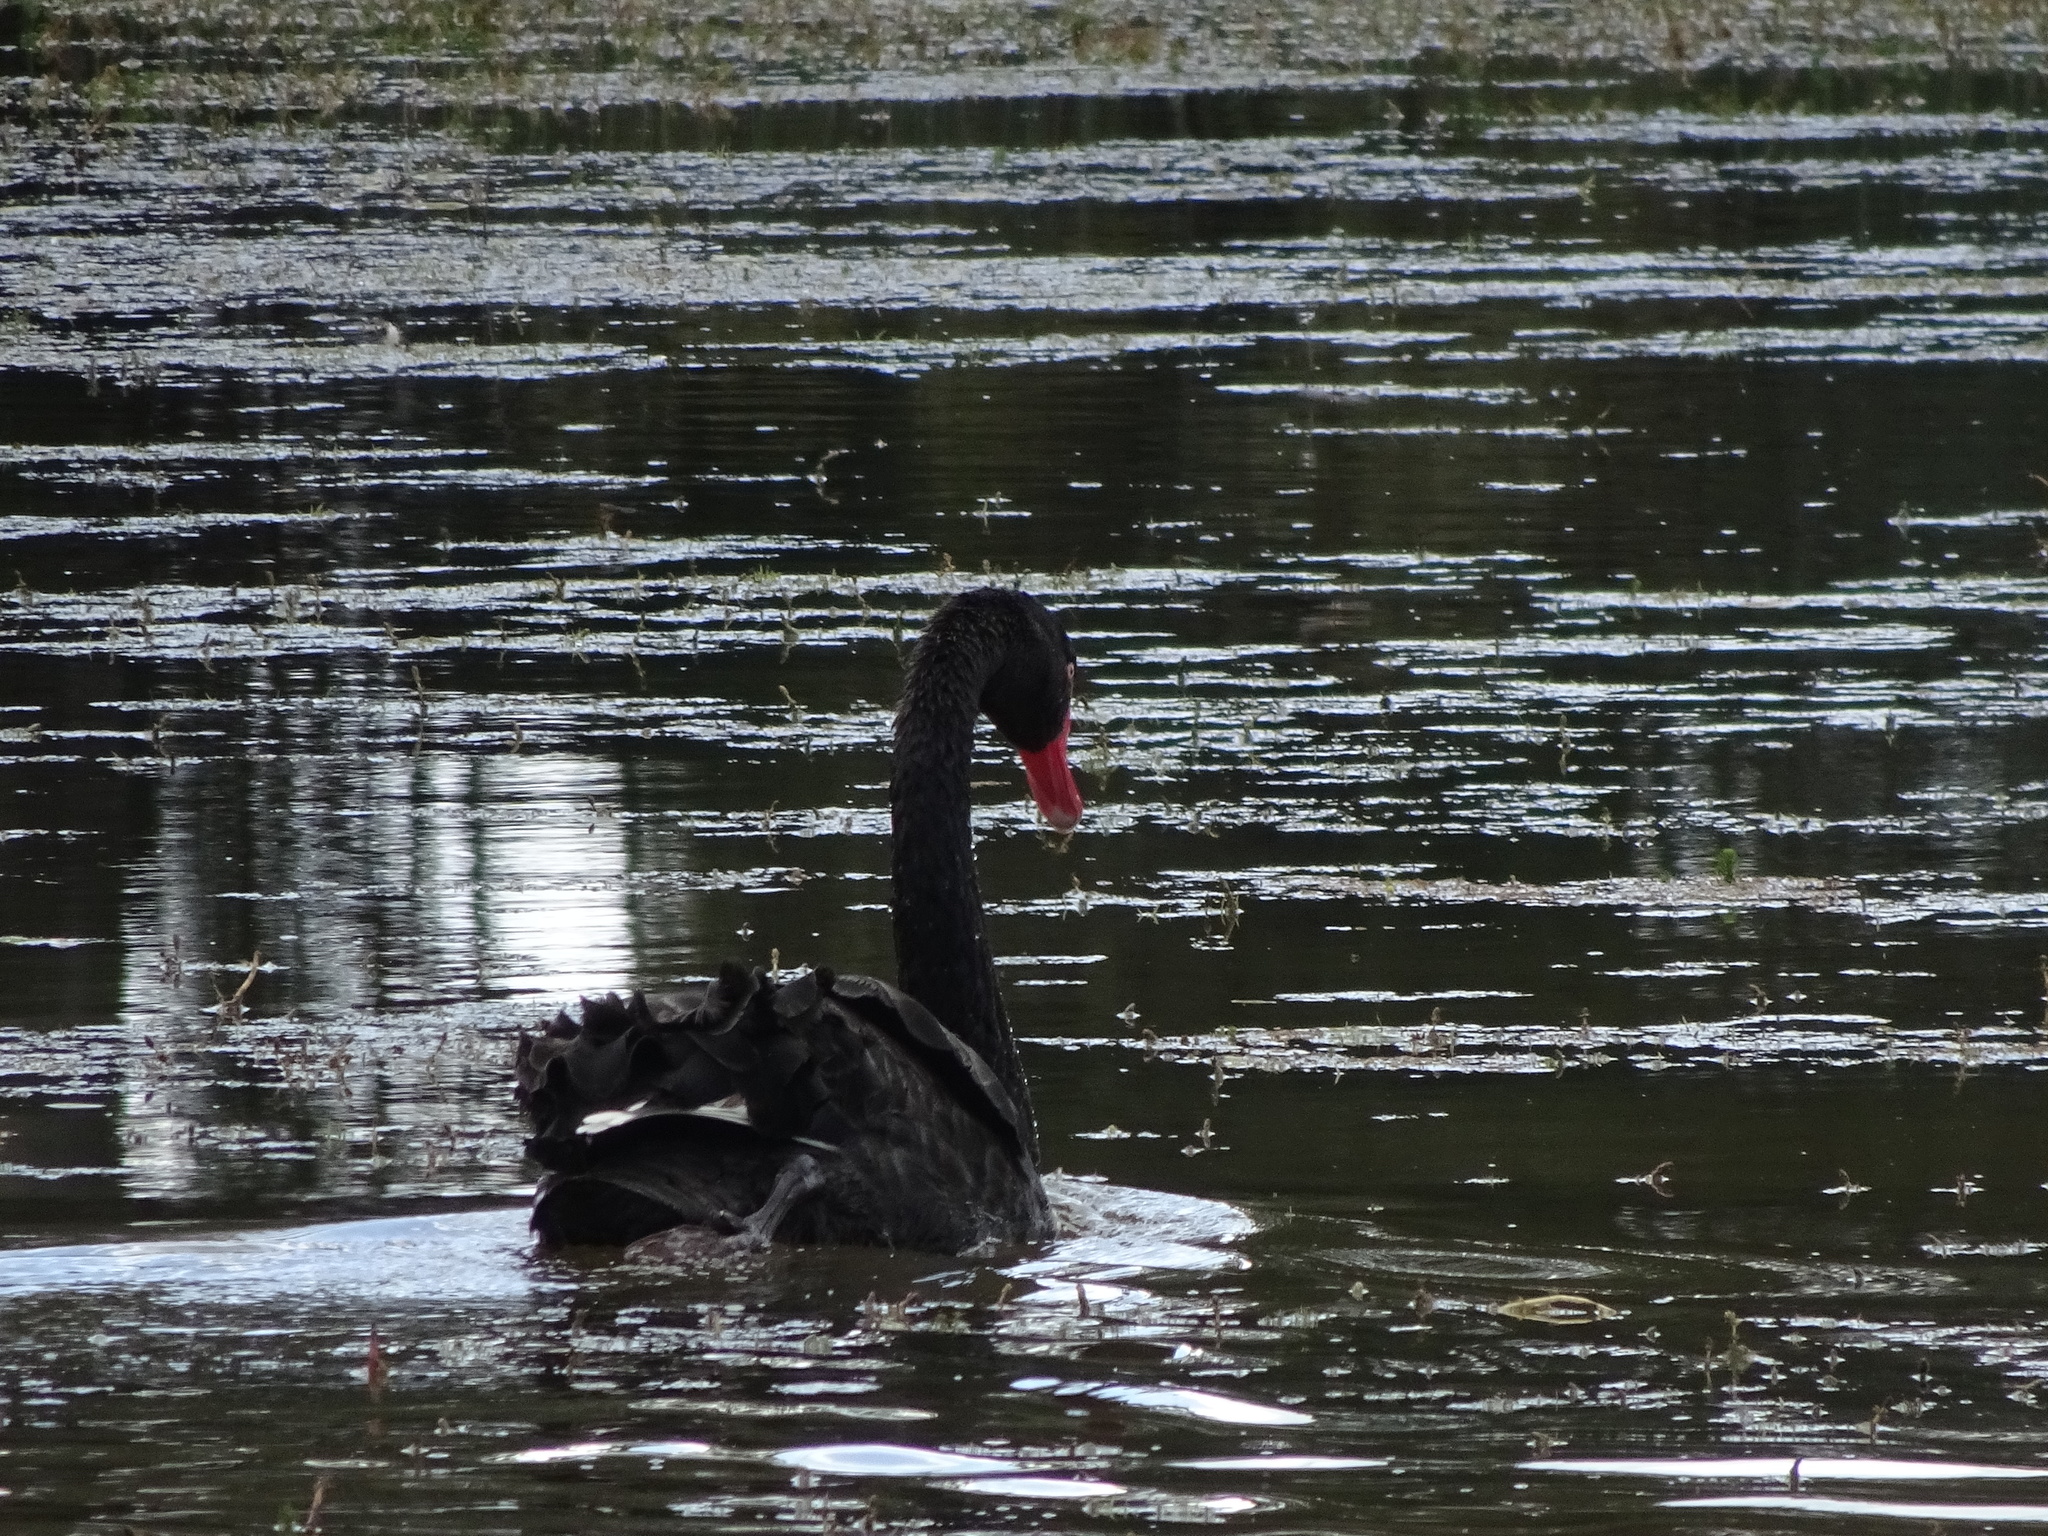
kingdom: Animalia
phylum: Chordata
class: Aves
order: Anseriformes
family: Anatidae
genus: Cygnus
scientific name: Cygnus atratus
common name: Black swan
